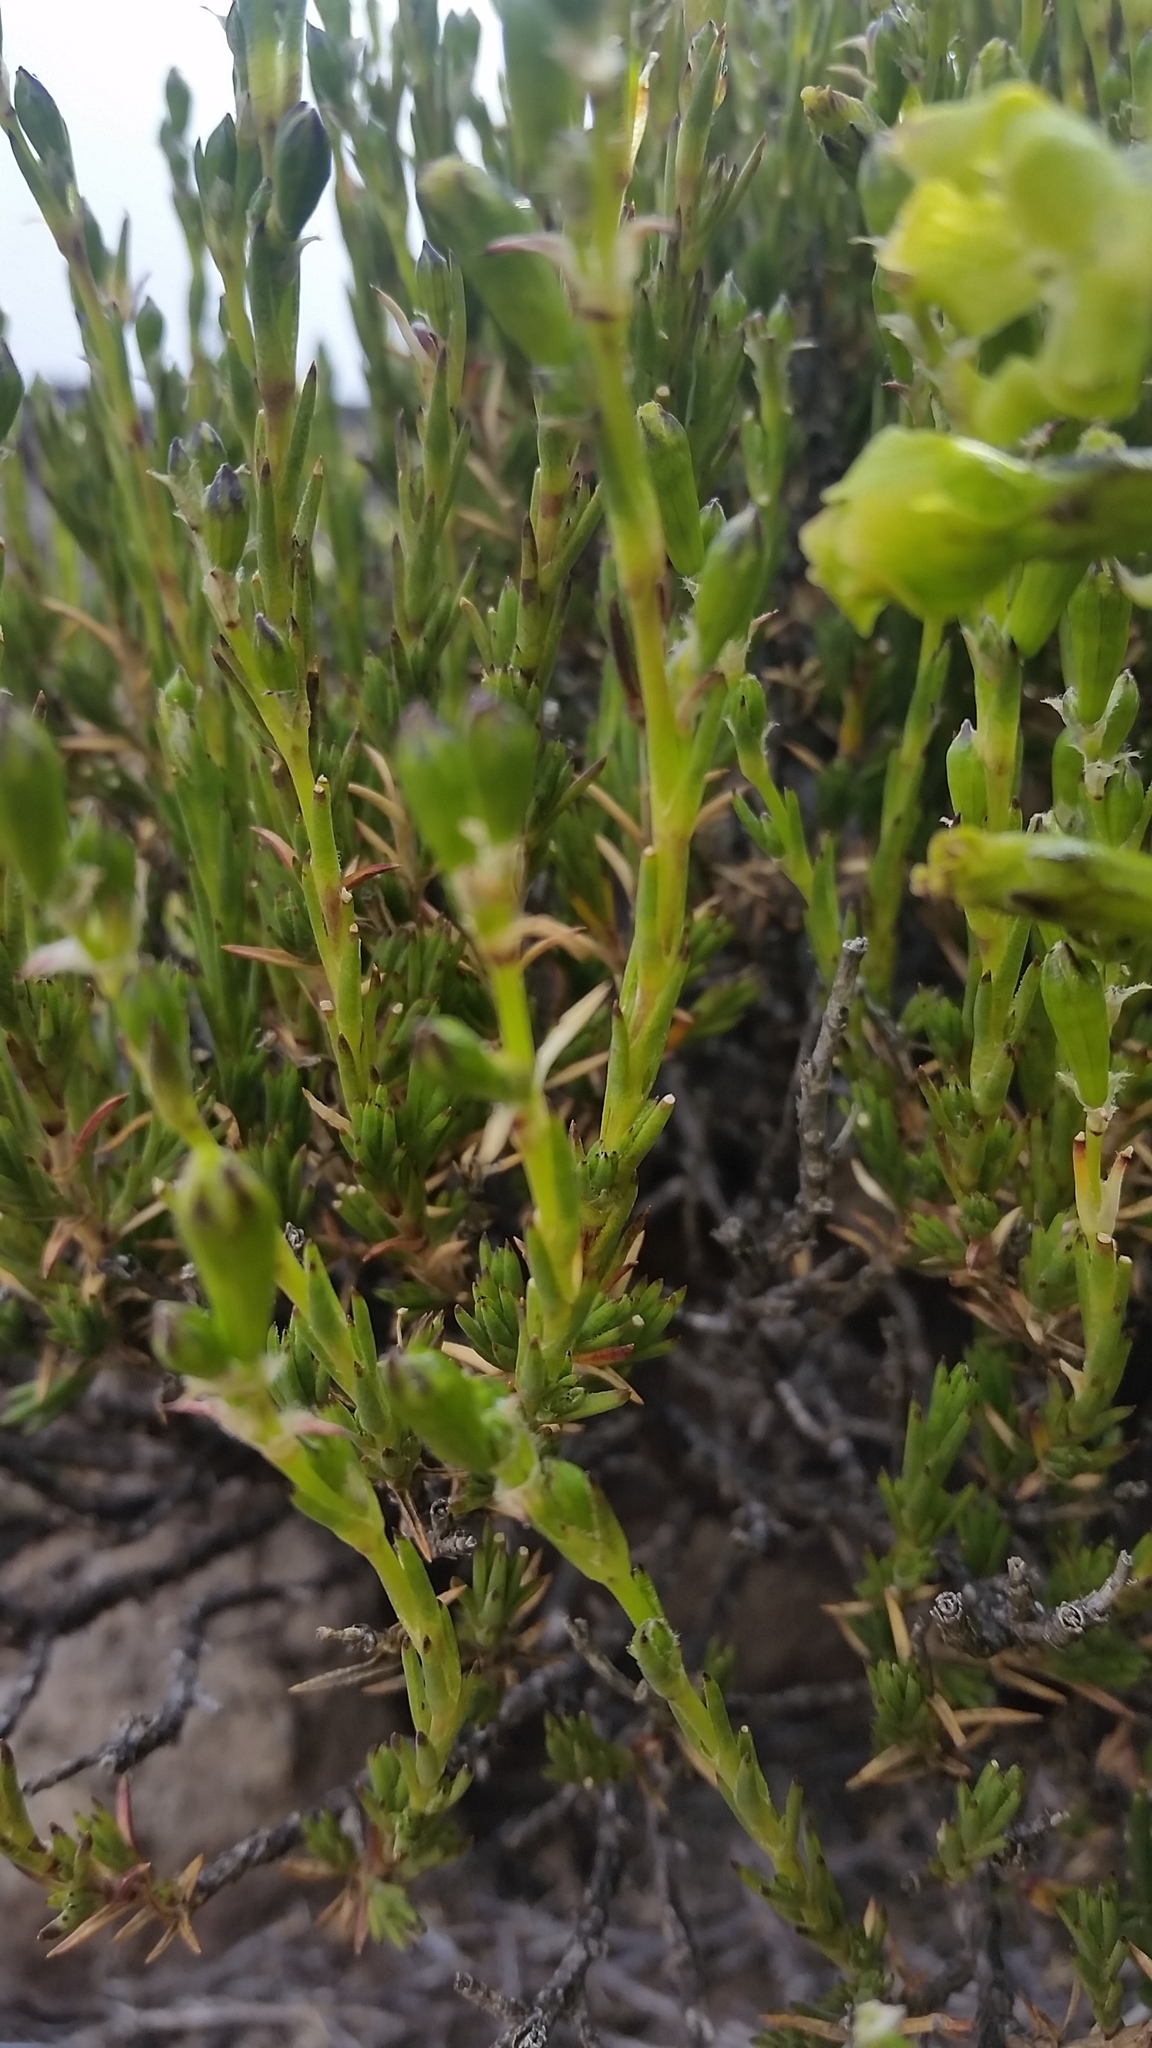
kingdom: Plantae
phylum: Tracheophyta
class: Magnoliopsida
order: Caryophyllales
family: Caryophyllaceae
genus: Silene
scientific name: Silene struthioloides
